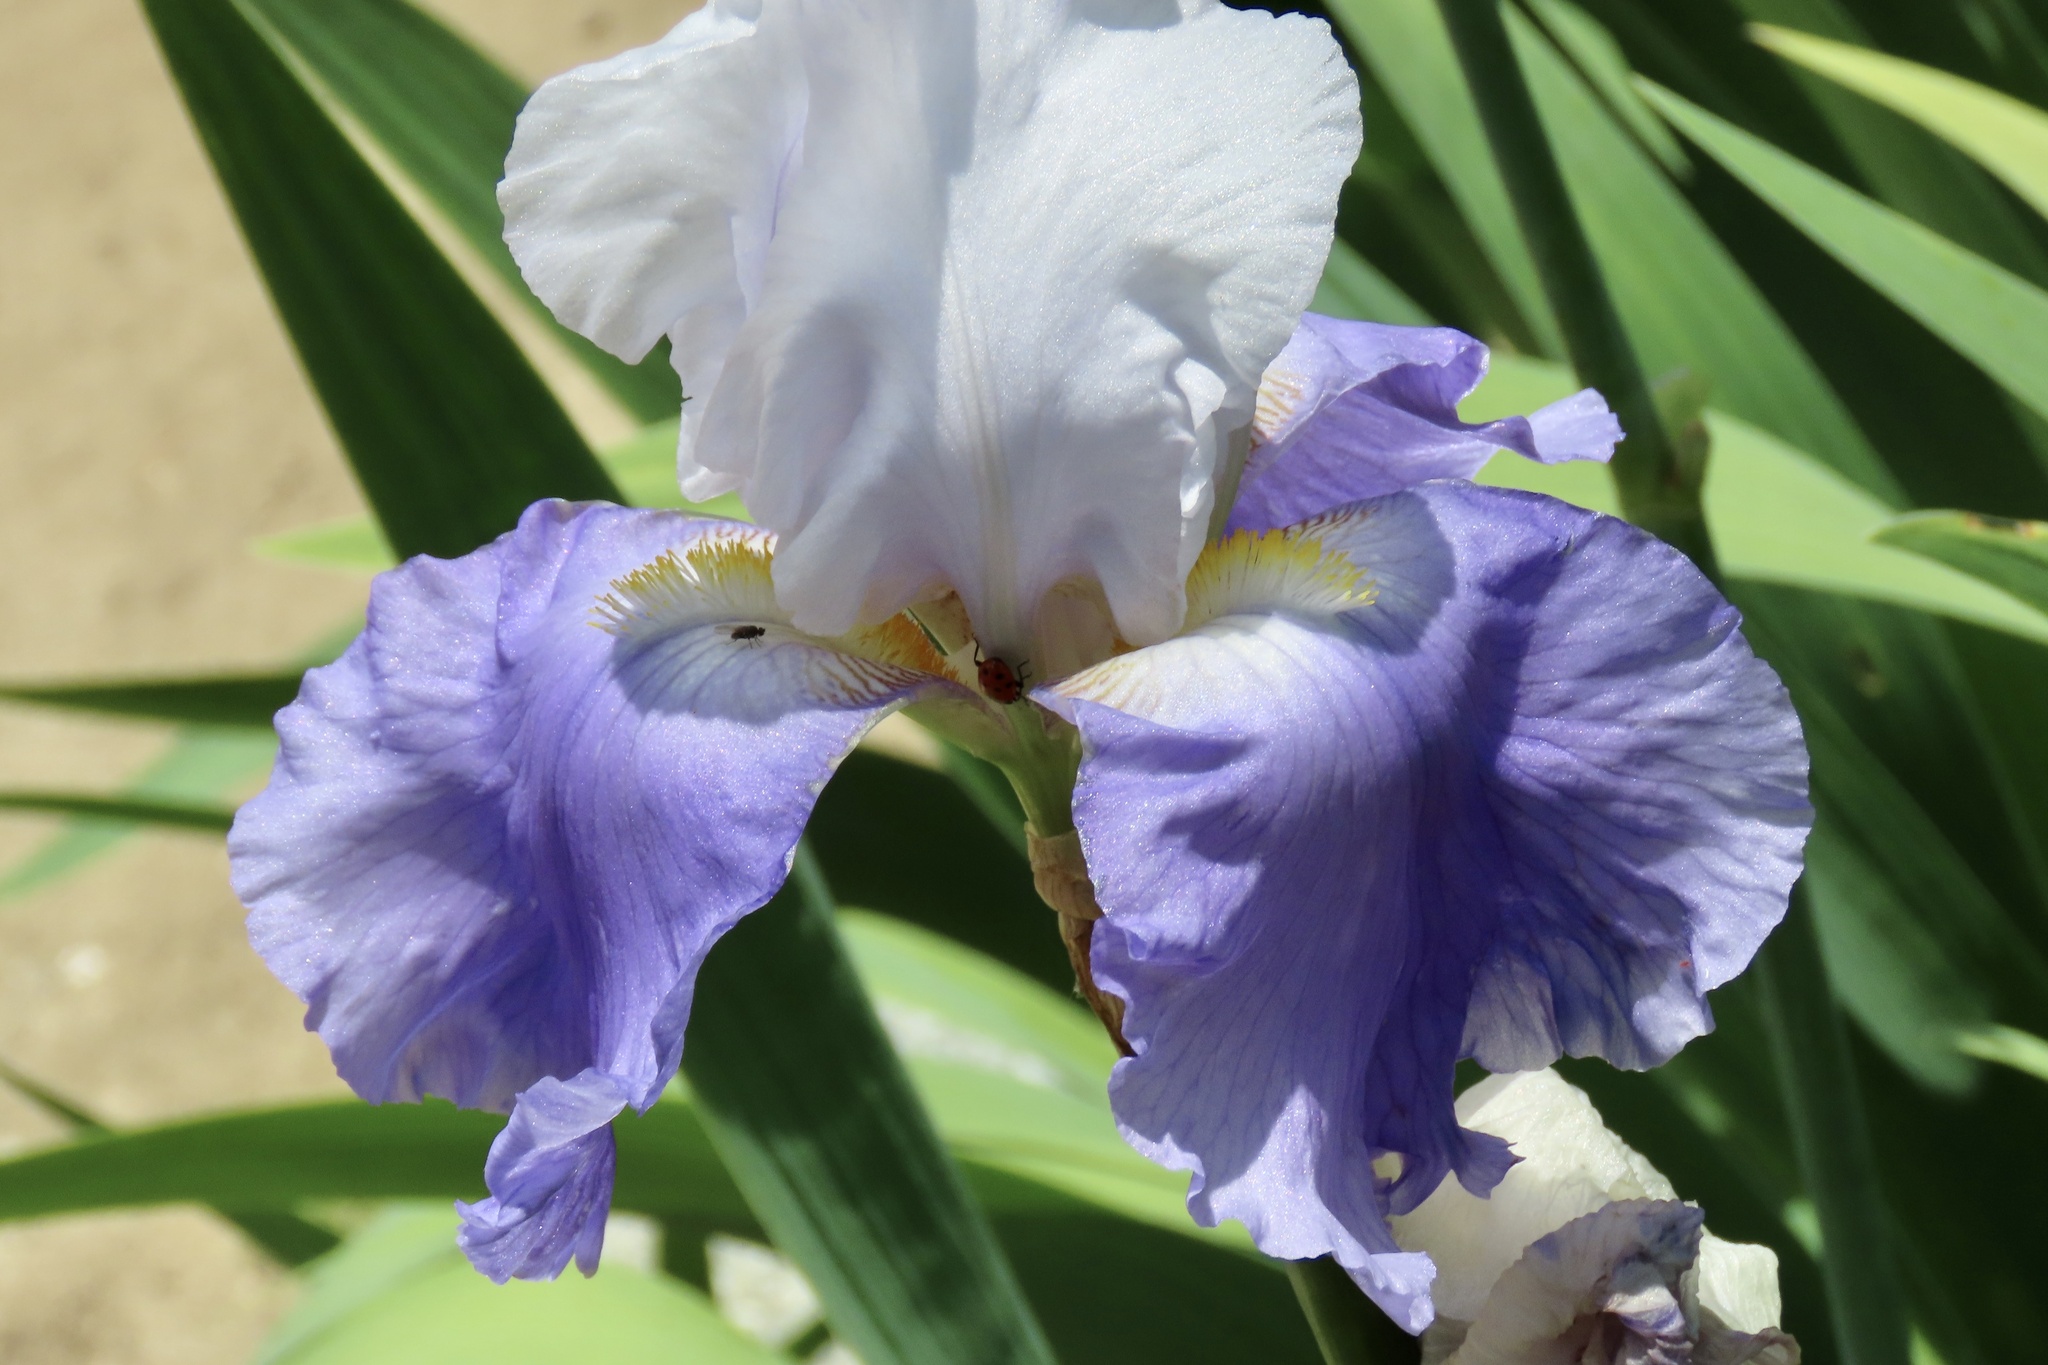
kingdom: Animalia
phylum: Arthropoda
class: Insecta
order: Coleoptera
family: Coccinellidae
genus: Hippodamia
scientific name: Hippodamia convergens
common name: Convergent lady beetle
